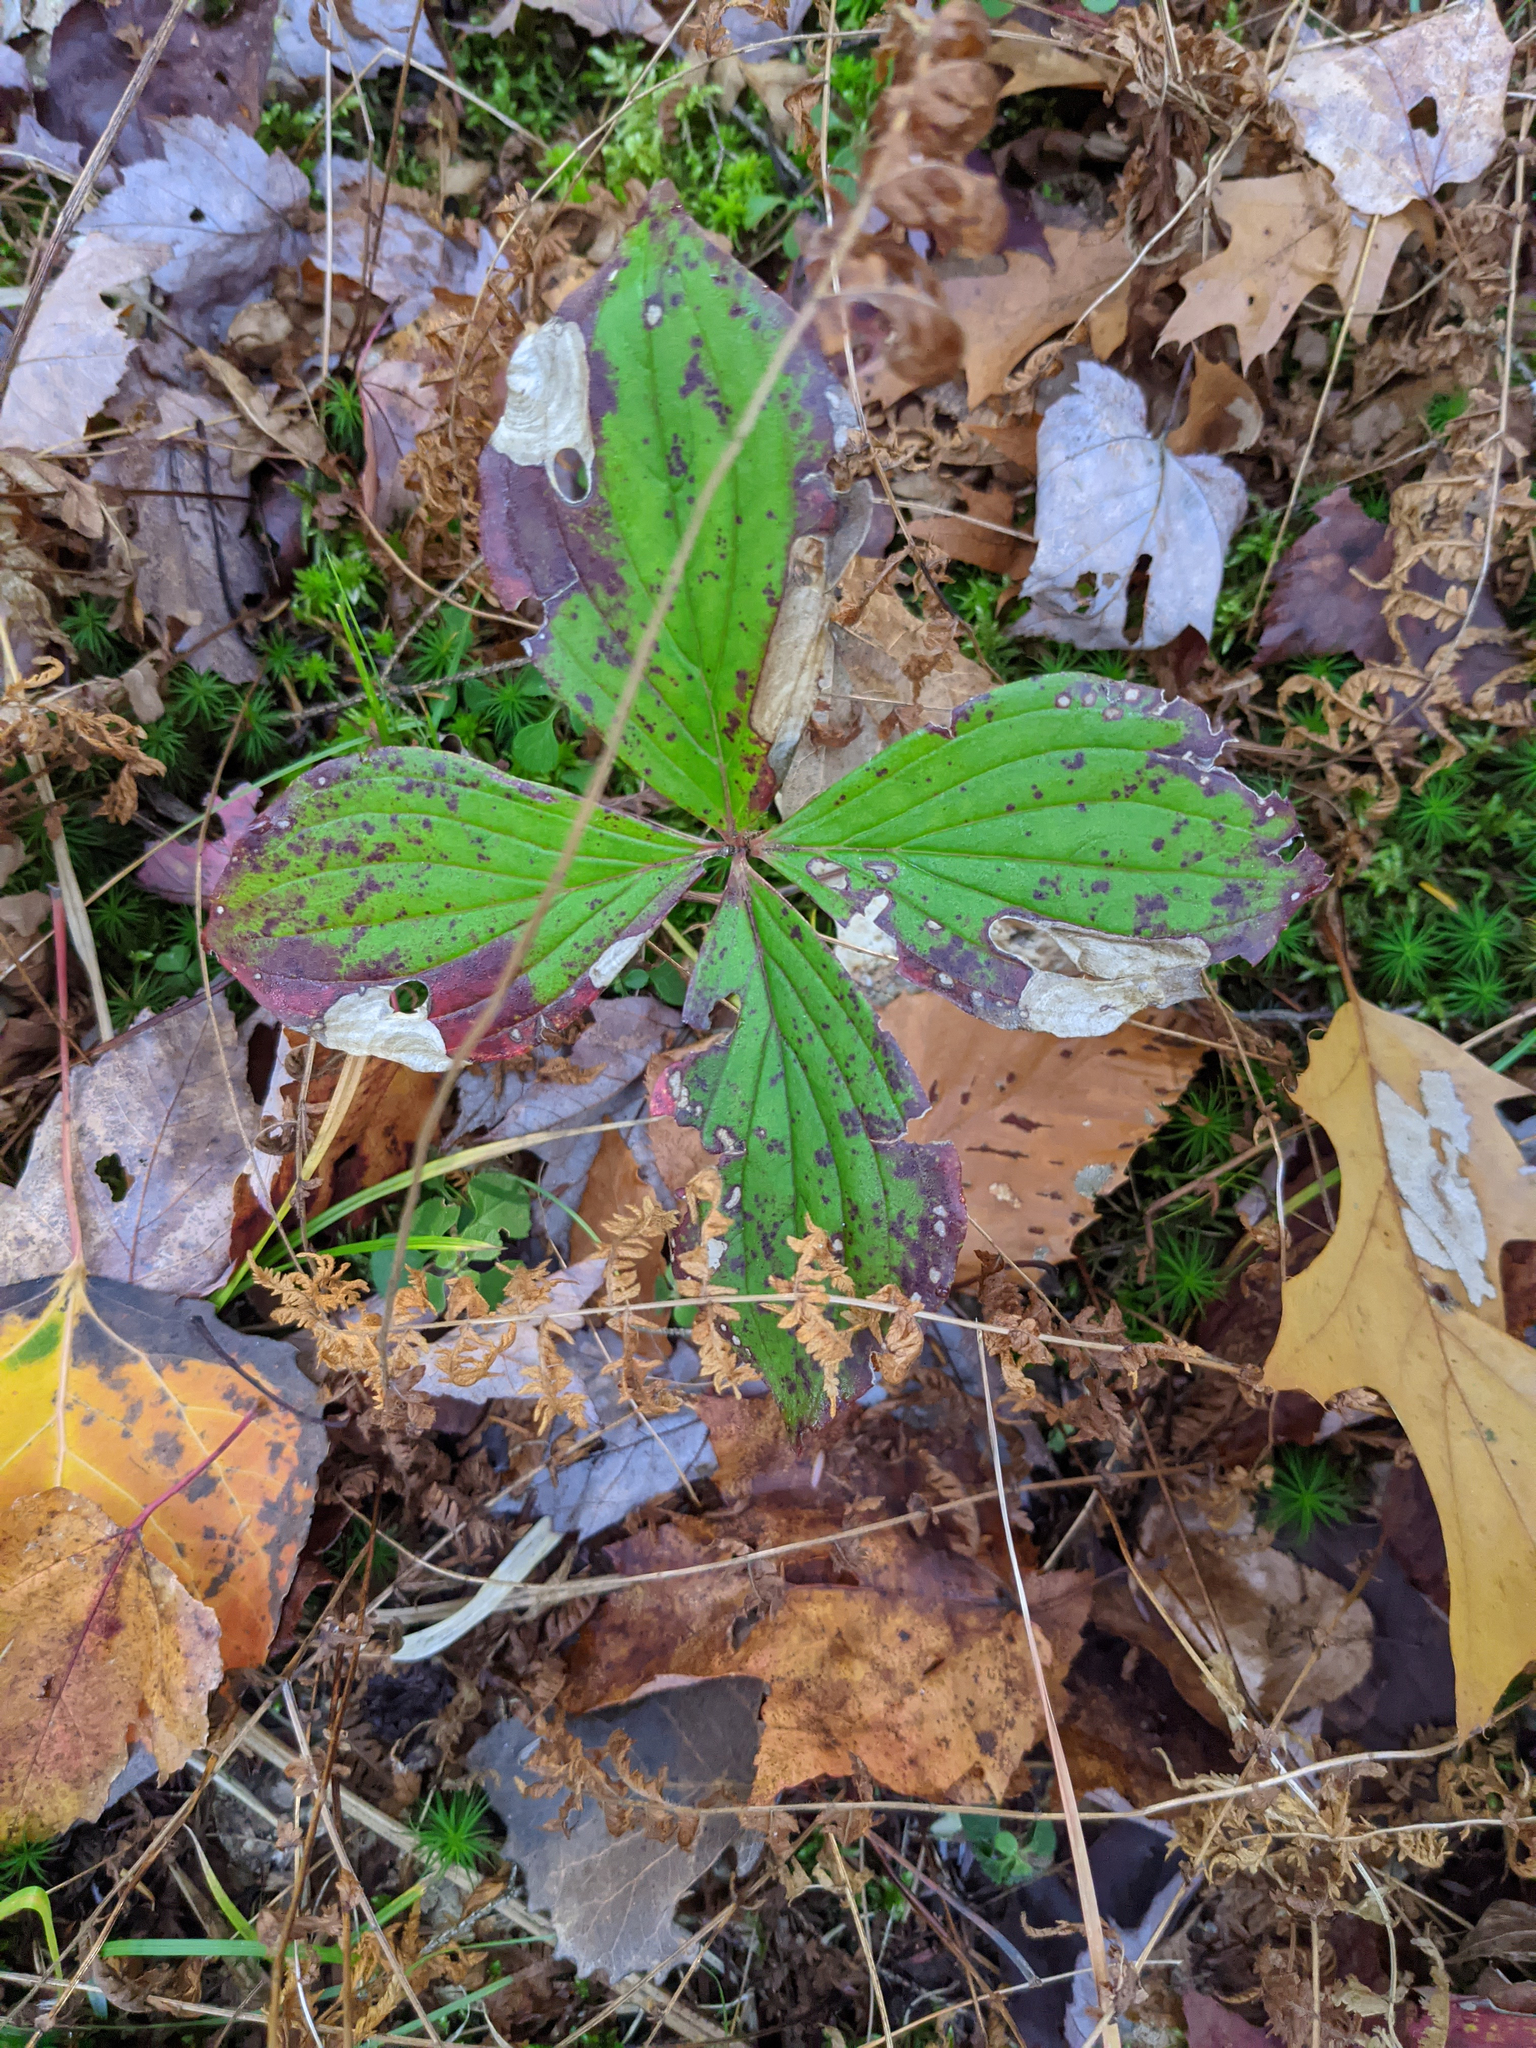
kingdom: Plantae
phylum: Tracheophyta
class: Magnoliopsida
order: Cornales
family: Cornaceae
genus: Cornus
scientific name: Cornus canadensis
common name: Creeping dogwood
